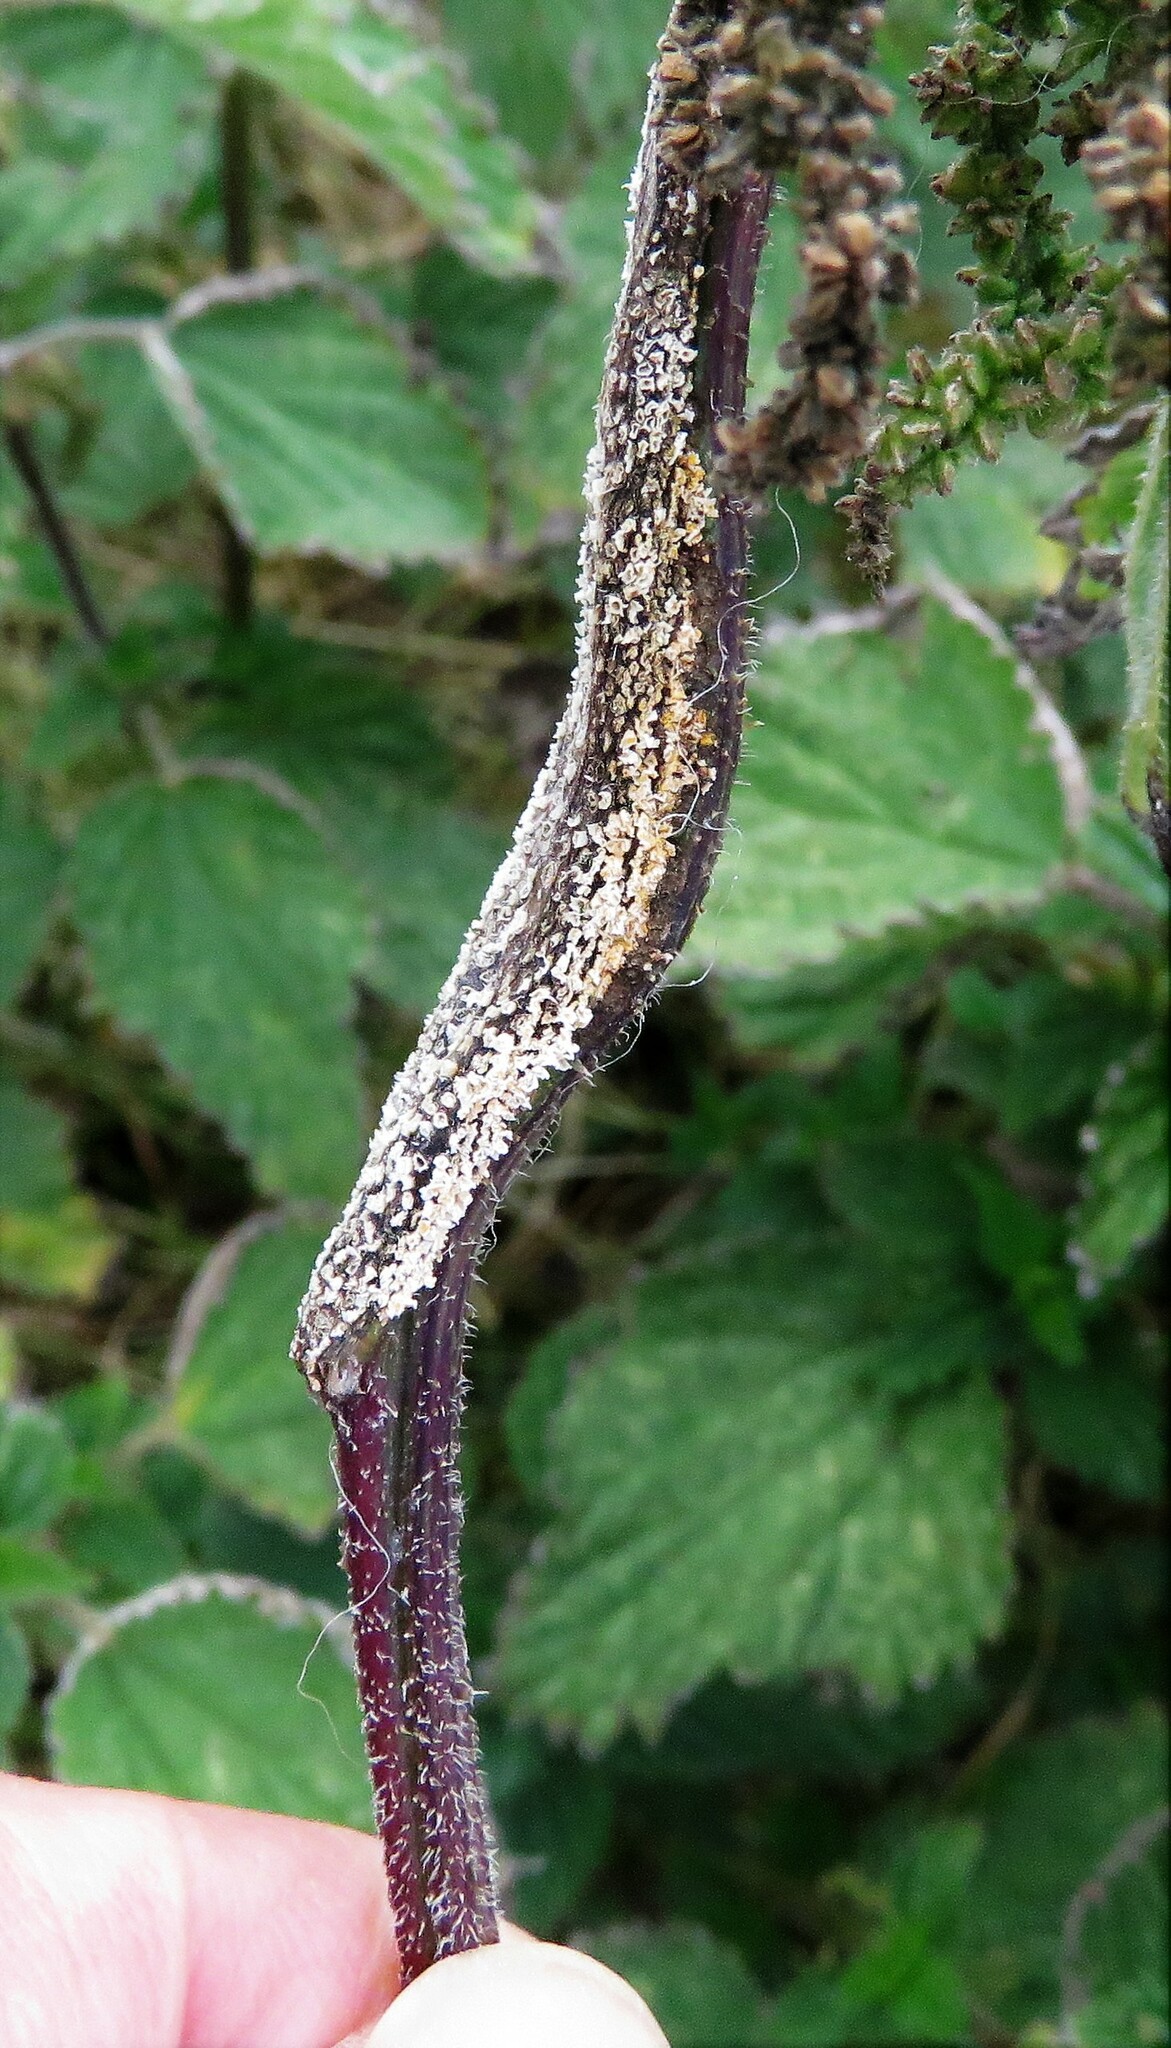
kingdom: Fungi
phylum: Basidiomycota
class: Pucciniomycetes
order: Pucciniales
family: Pucciniaceae
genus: Puccinia
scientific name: Puccinia urticata
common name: Nettle clustercup rust fungus
